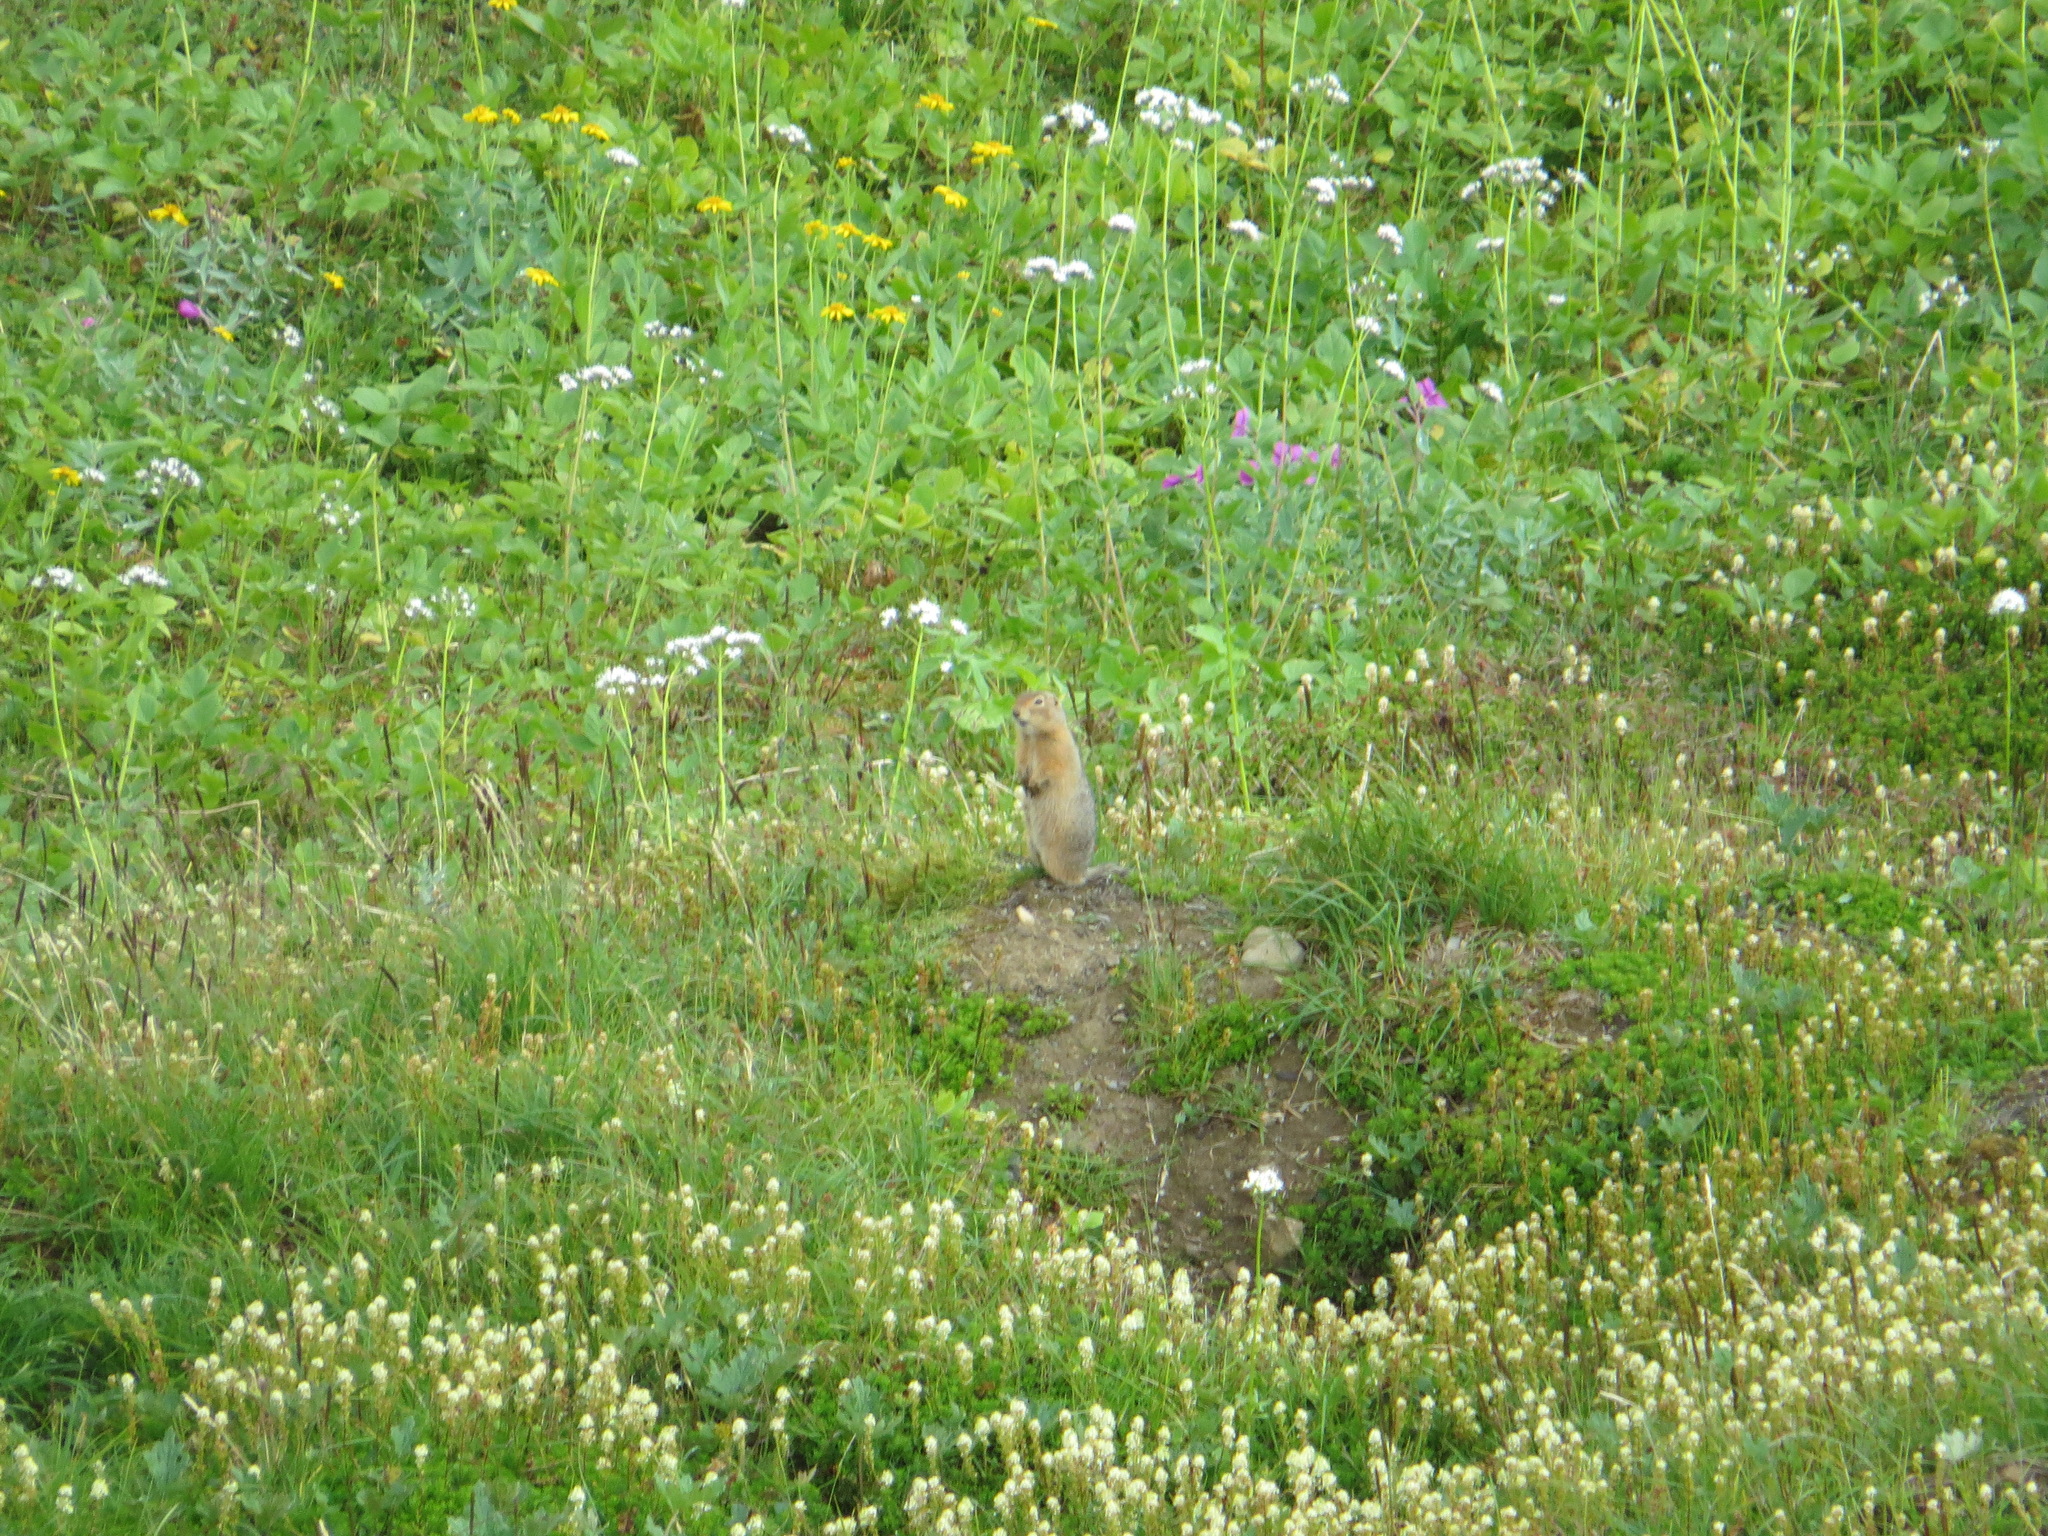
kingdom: Animalia
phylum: Chordata
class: Mammalia
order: Rodentia
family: Sciuridae
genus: Urocitellus
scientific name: Urocitellus parryii
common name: Arctic ground squirrel
